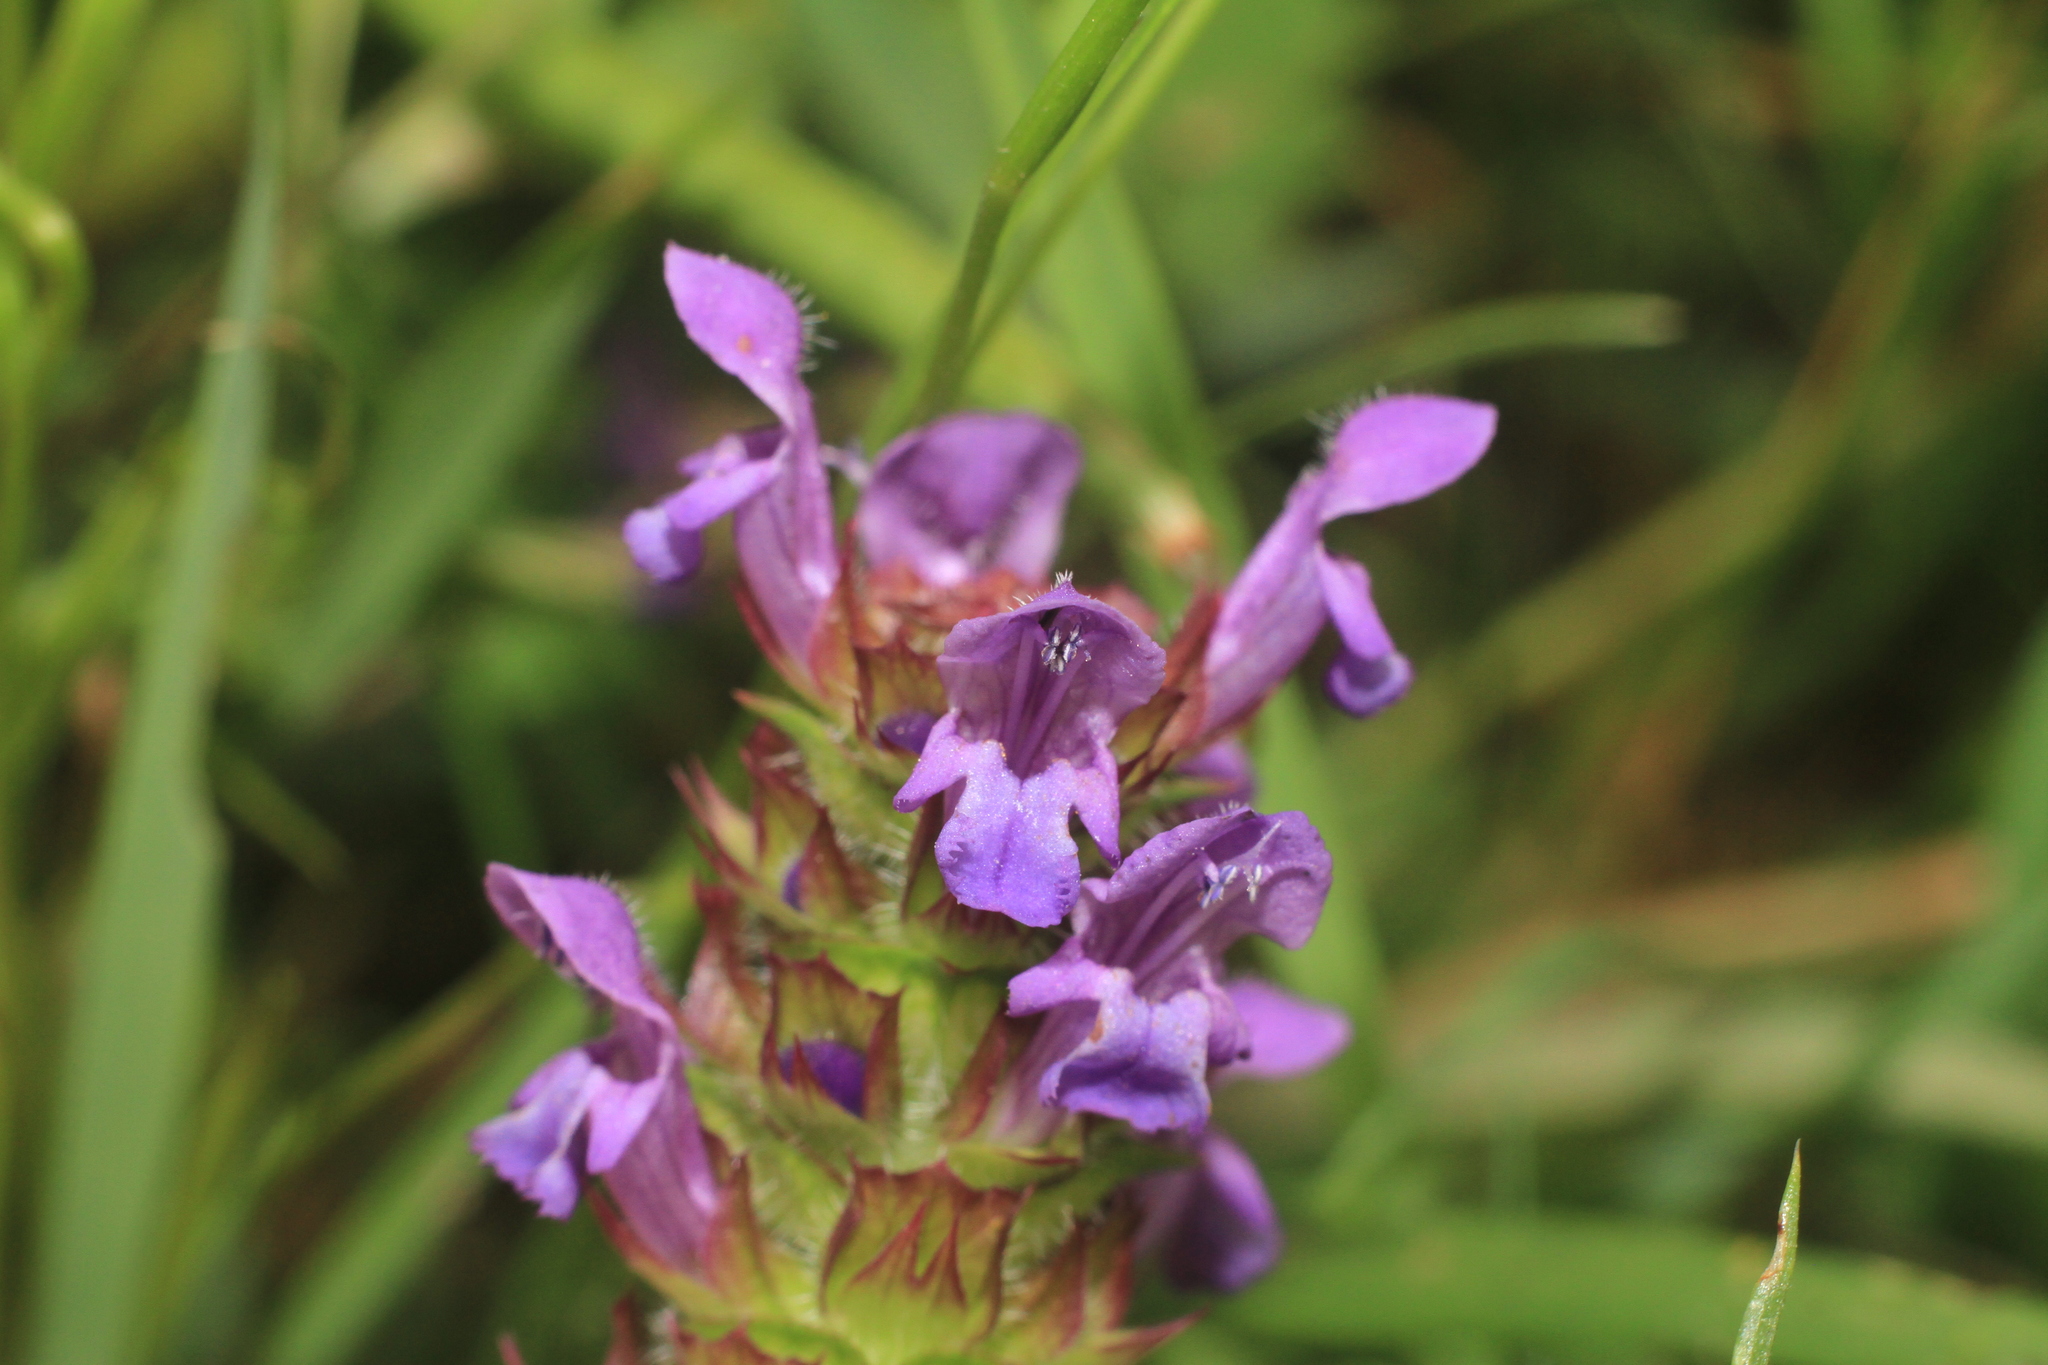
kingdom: Plantae
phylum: Tracheophyta
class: Magnoliopsida
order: Lamiales
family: Lamiaceae
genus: Prunella
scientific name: Prunella vulgaris
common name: Heal-all
